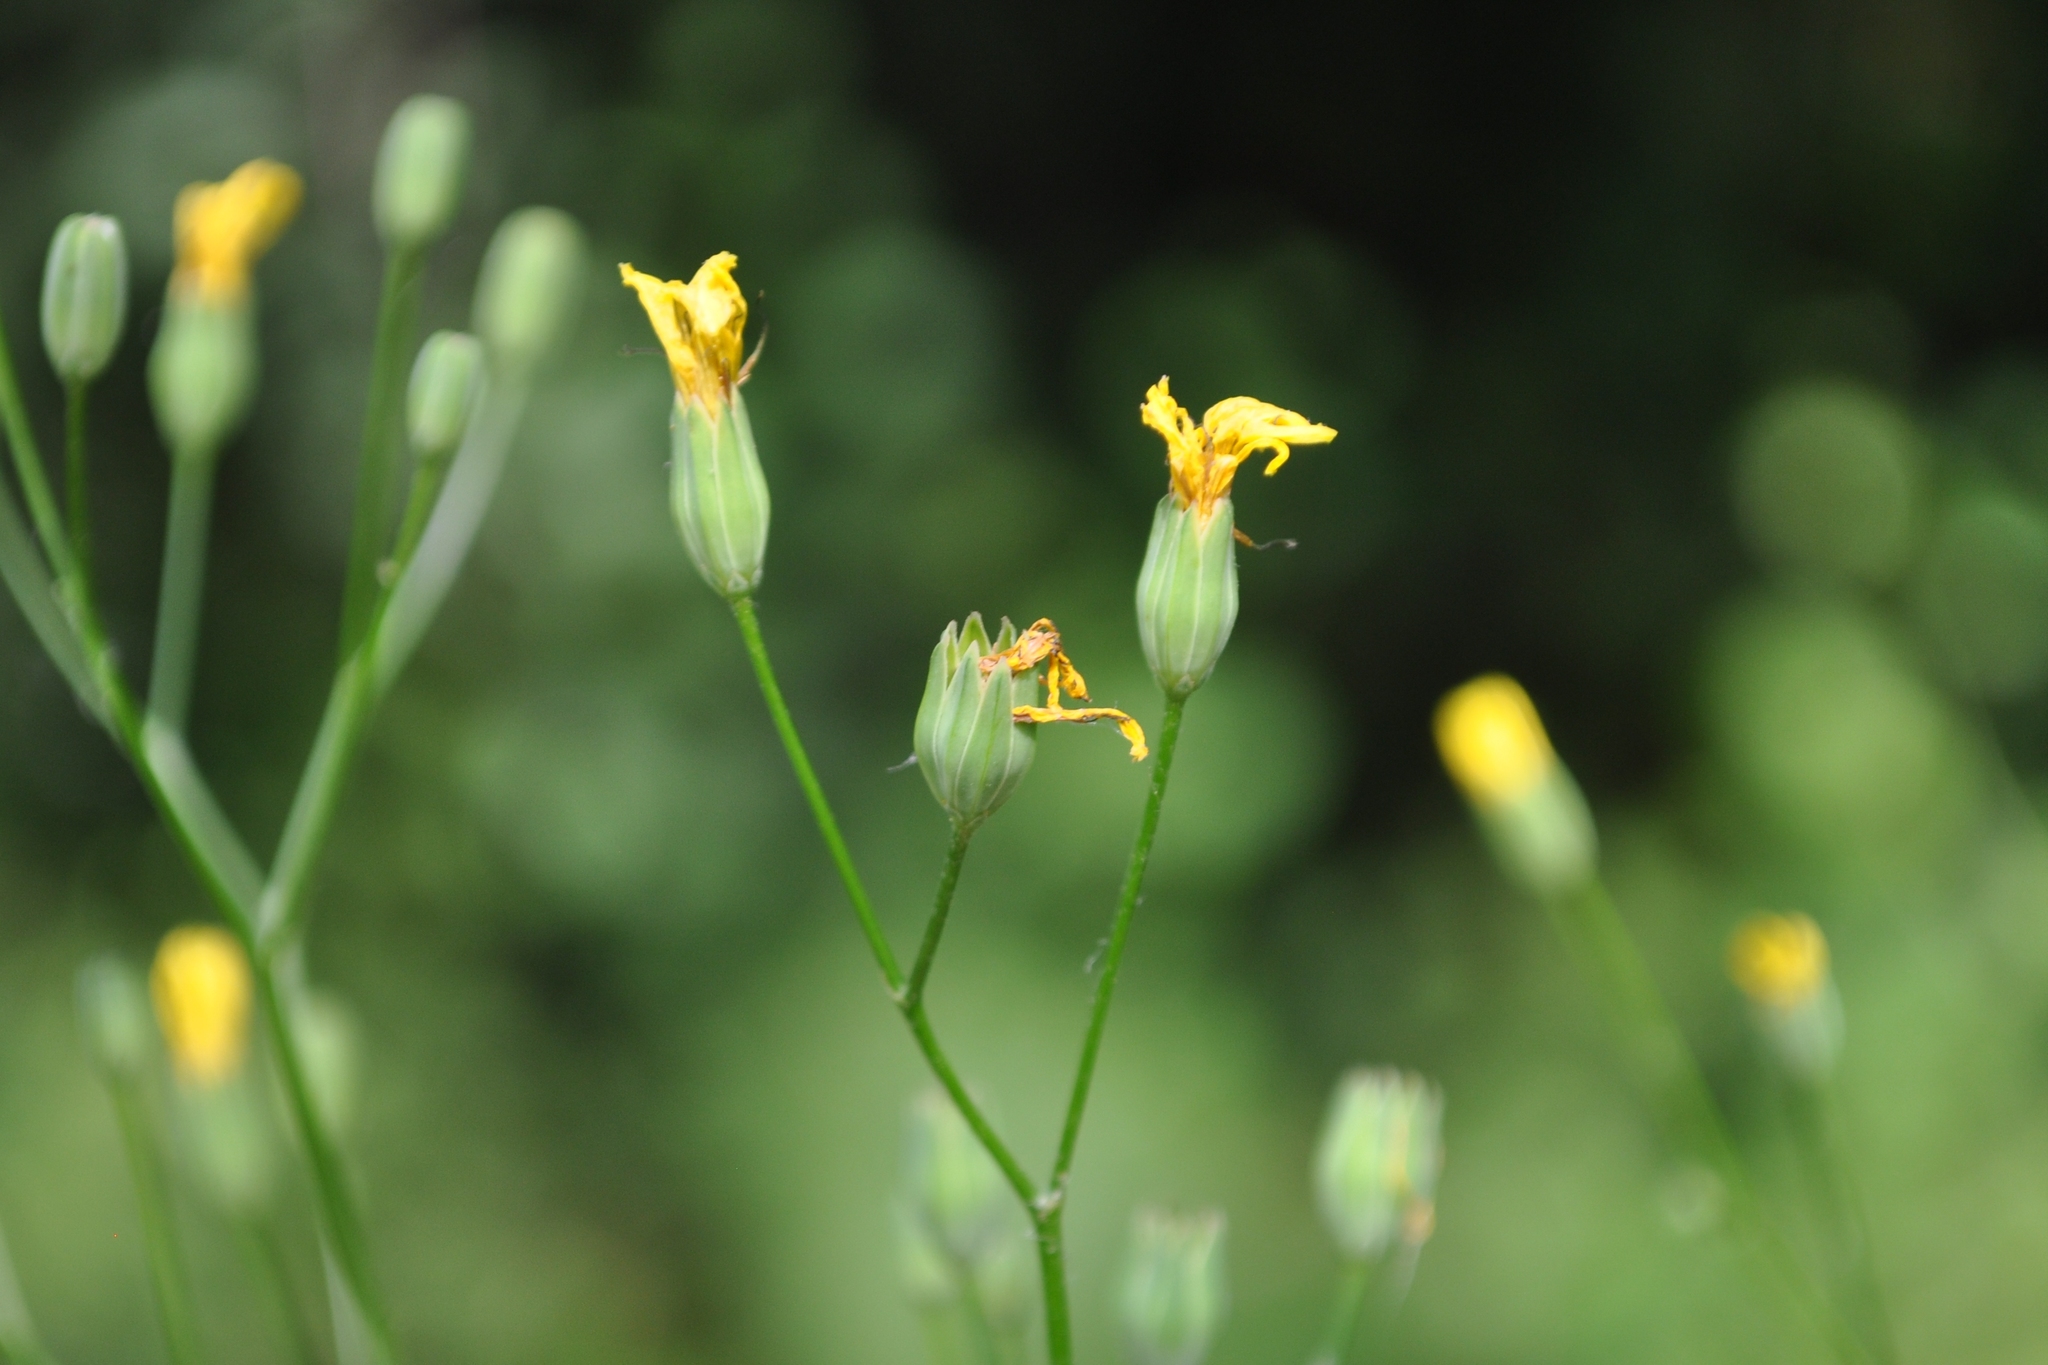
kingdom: Plantae
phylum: Tracheophyta
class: Magnoliopsida
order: Asterales
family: Asteraceae
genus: Lapsana
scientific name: Lapsana communis
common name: Nipplewort
